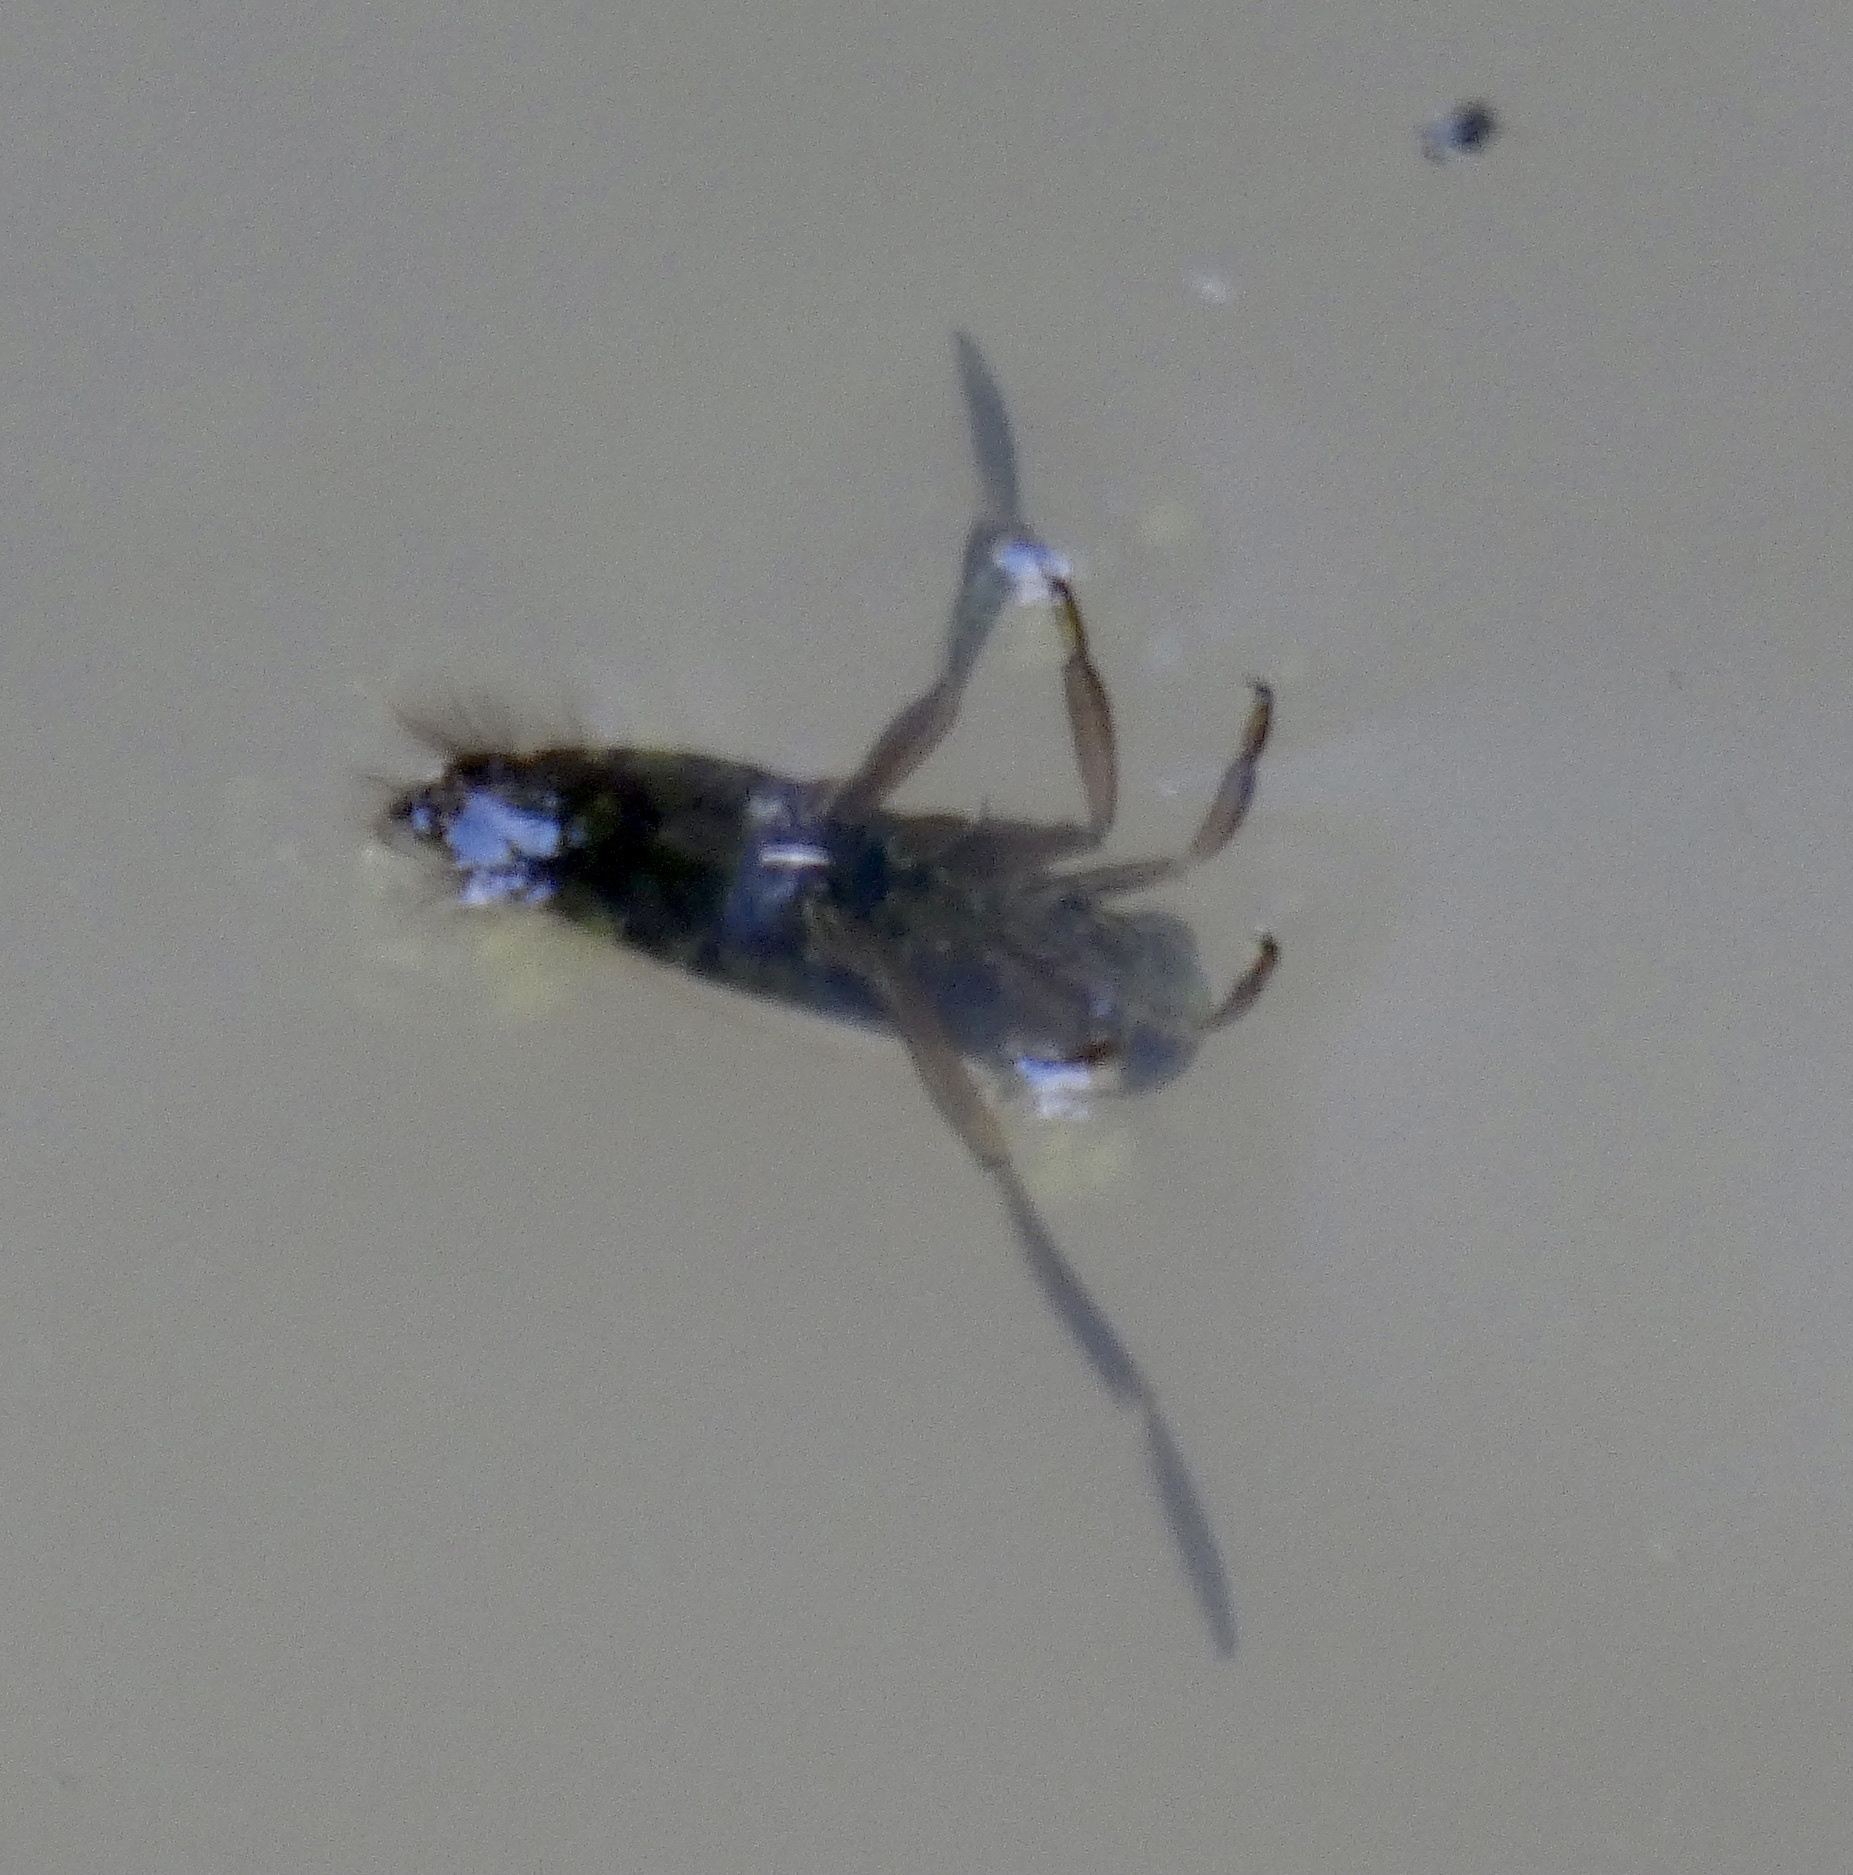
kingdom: Animalia
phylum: Arthropoda
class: Insecta
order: Hemiptera
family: Notonectidae
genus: Notonecta
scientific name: Notonecta
